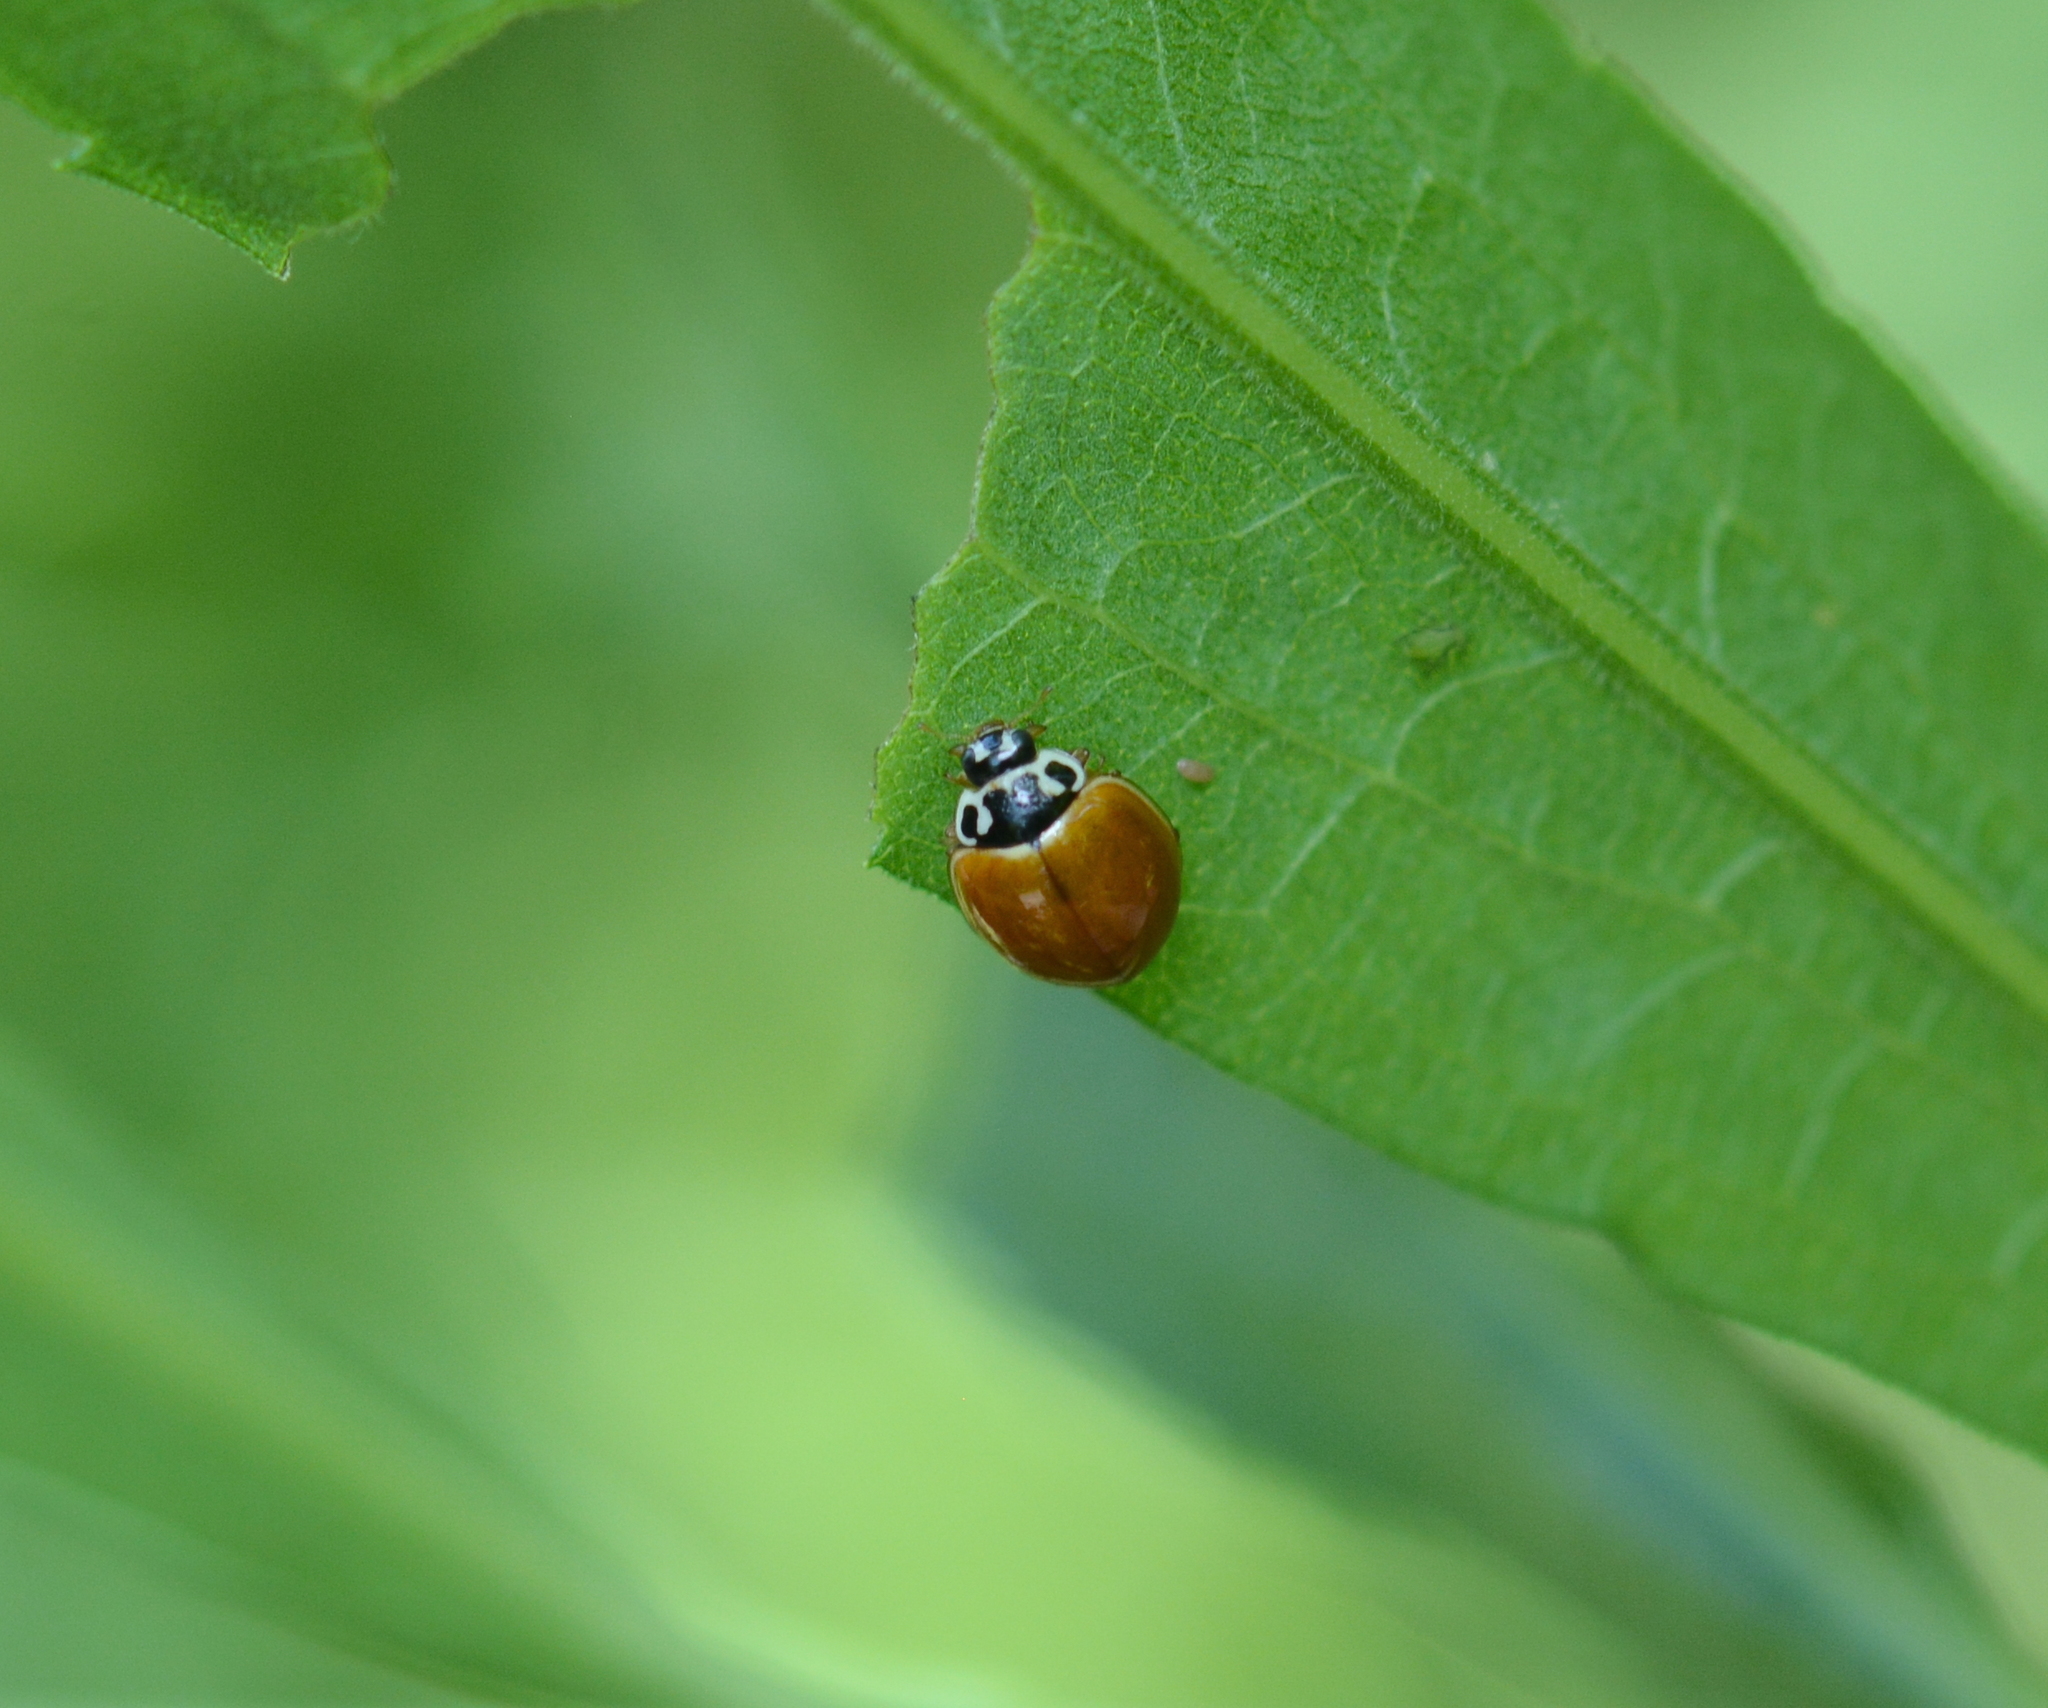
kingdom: Animalia
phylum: Arthropoda
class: Insecta
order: Coleoptera
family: Coccinellidae
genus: Cycloneda
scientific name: Cycloneda munda
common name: Polished lady beetle
